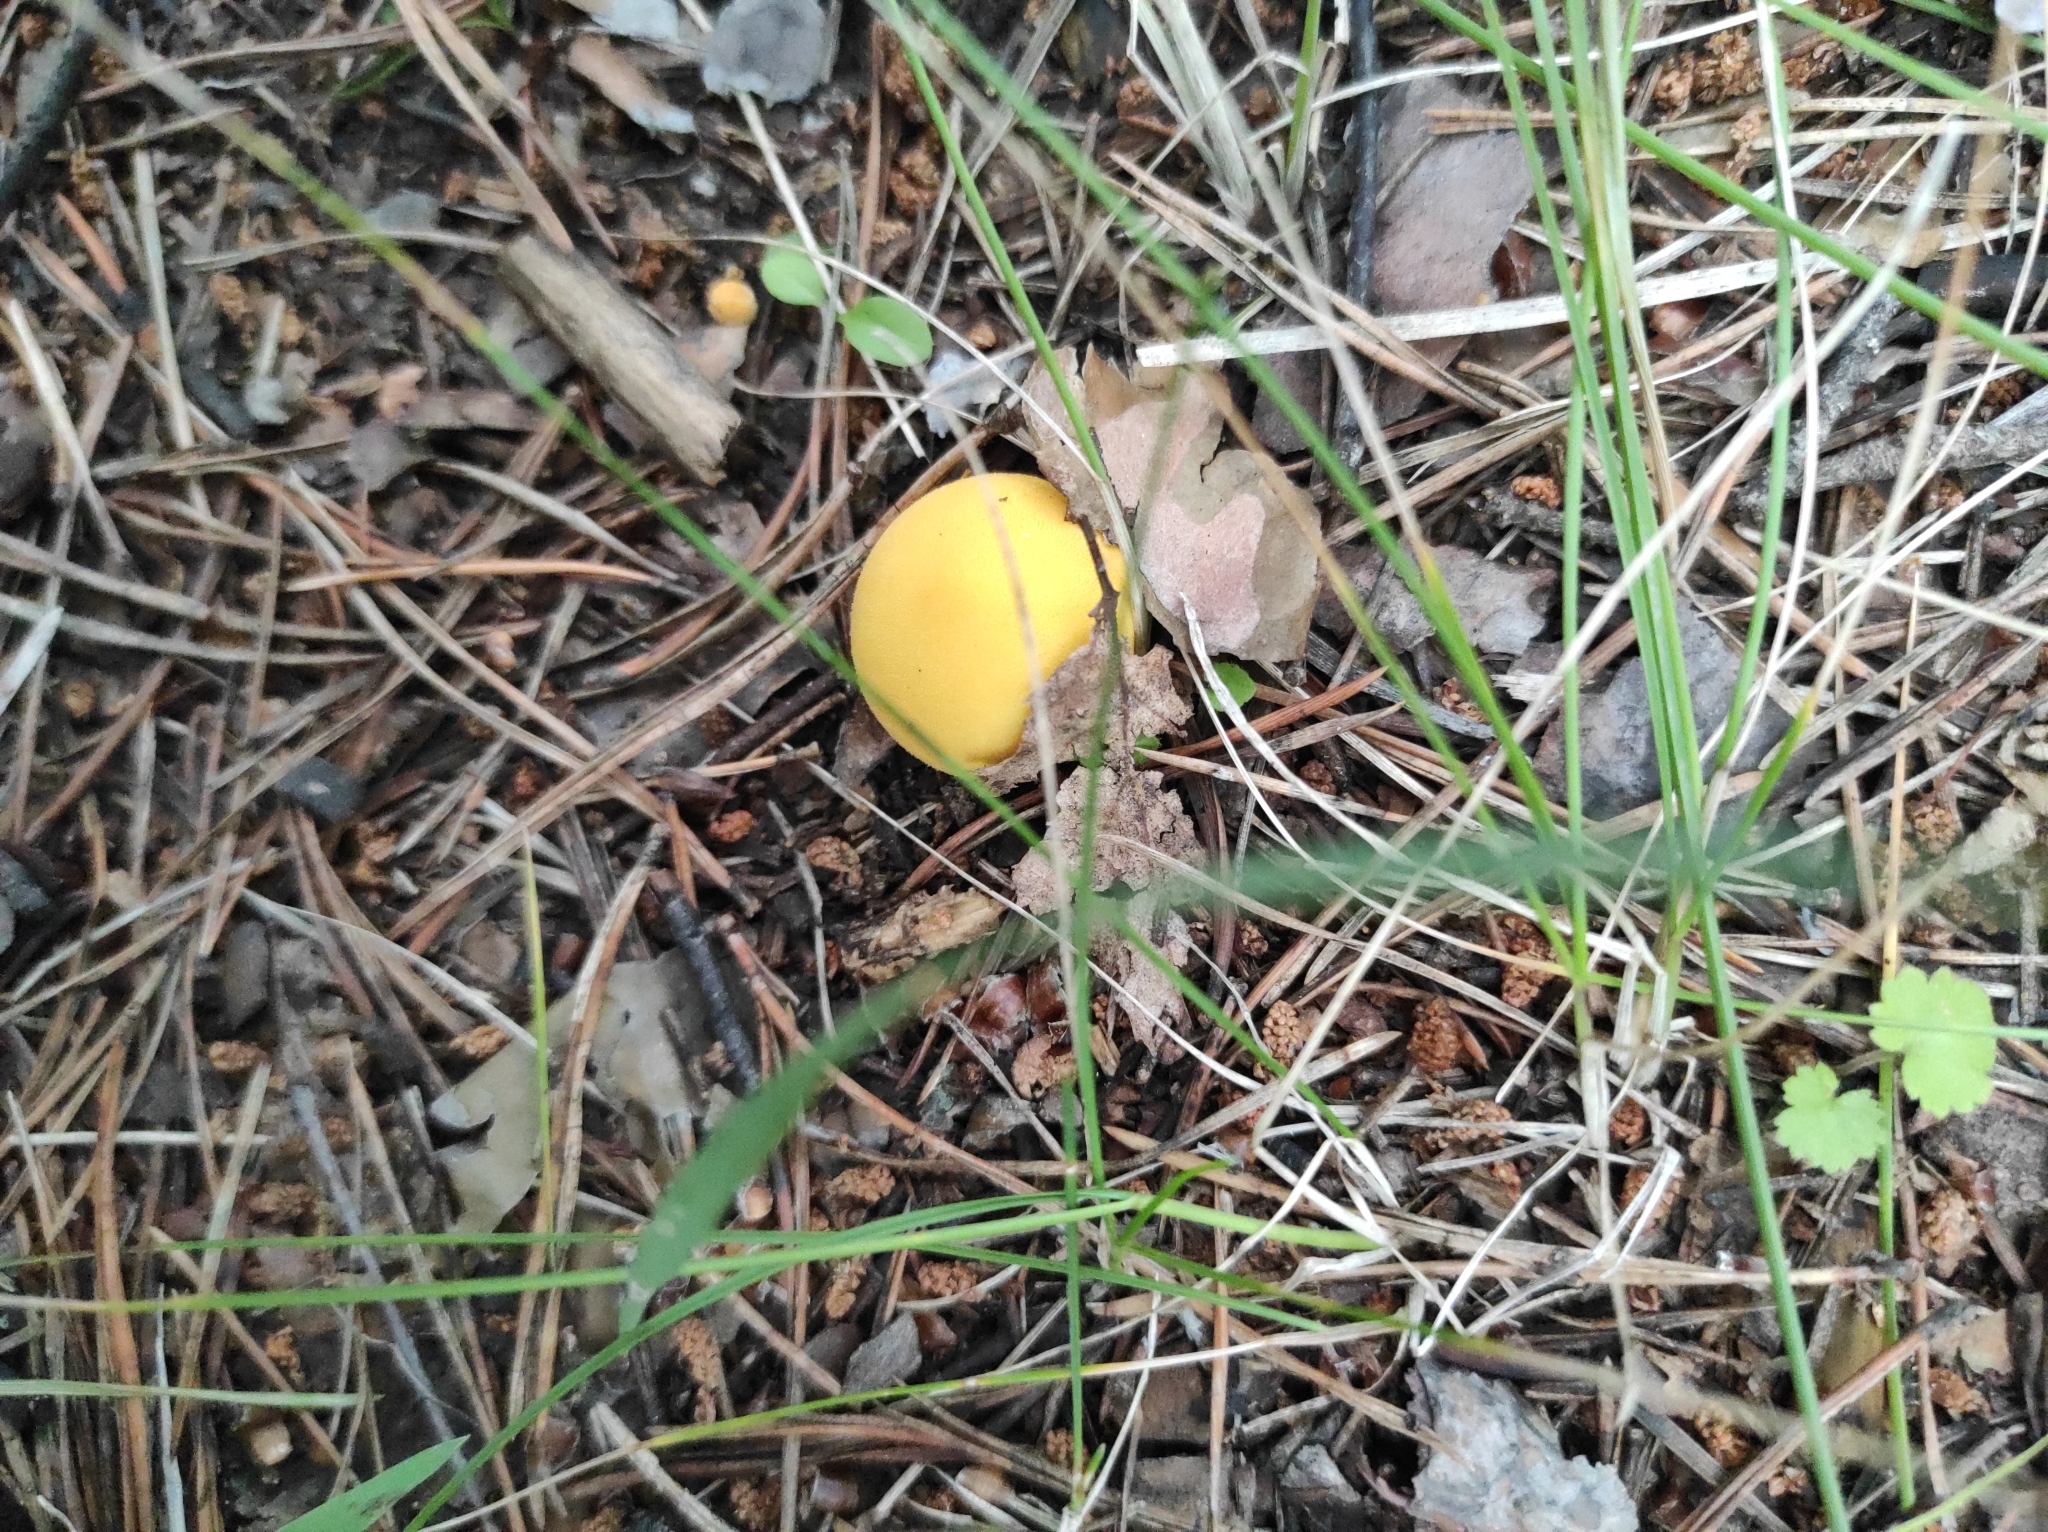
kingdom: Fungi
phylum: Basidiomycota
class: Agaricomycetes
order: Agaricales
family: Lycoperdaceae
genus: Lycoperdon
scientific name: Lycoperdon flavotinctum
